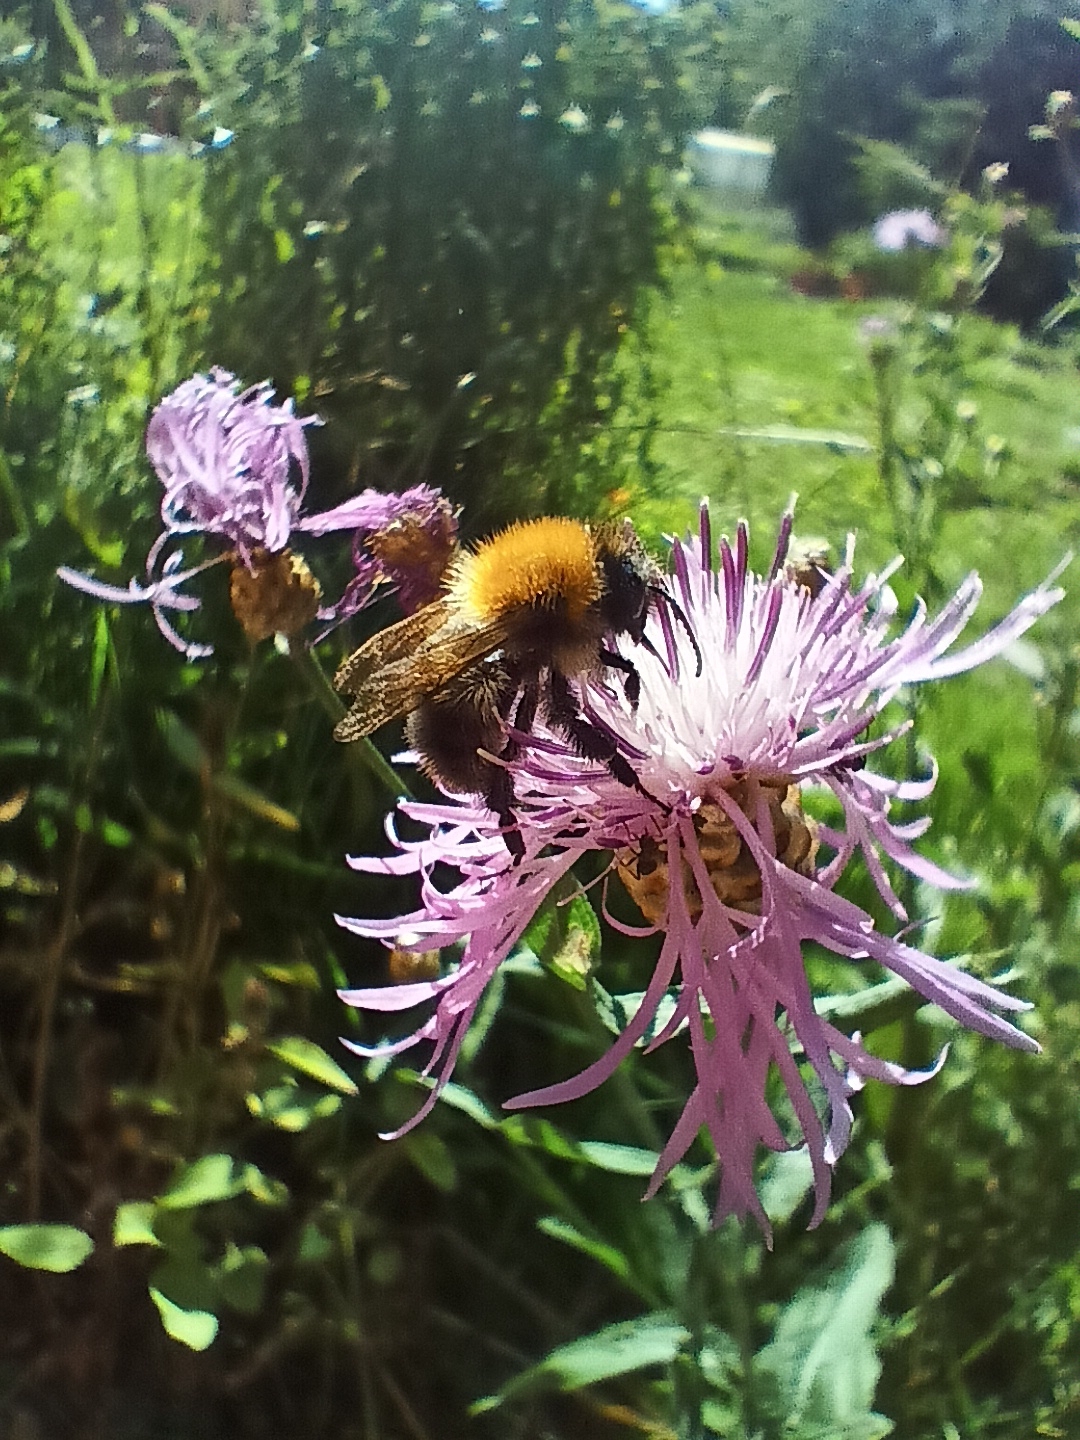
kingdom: Animalia
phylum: Arthropoda
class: Insecta
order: Hymenoptera
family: Apidae
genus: Bombus
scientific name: Bombus pascuorum
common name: Common carder bee
